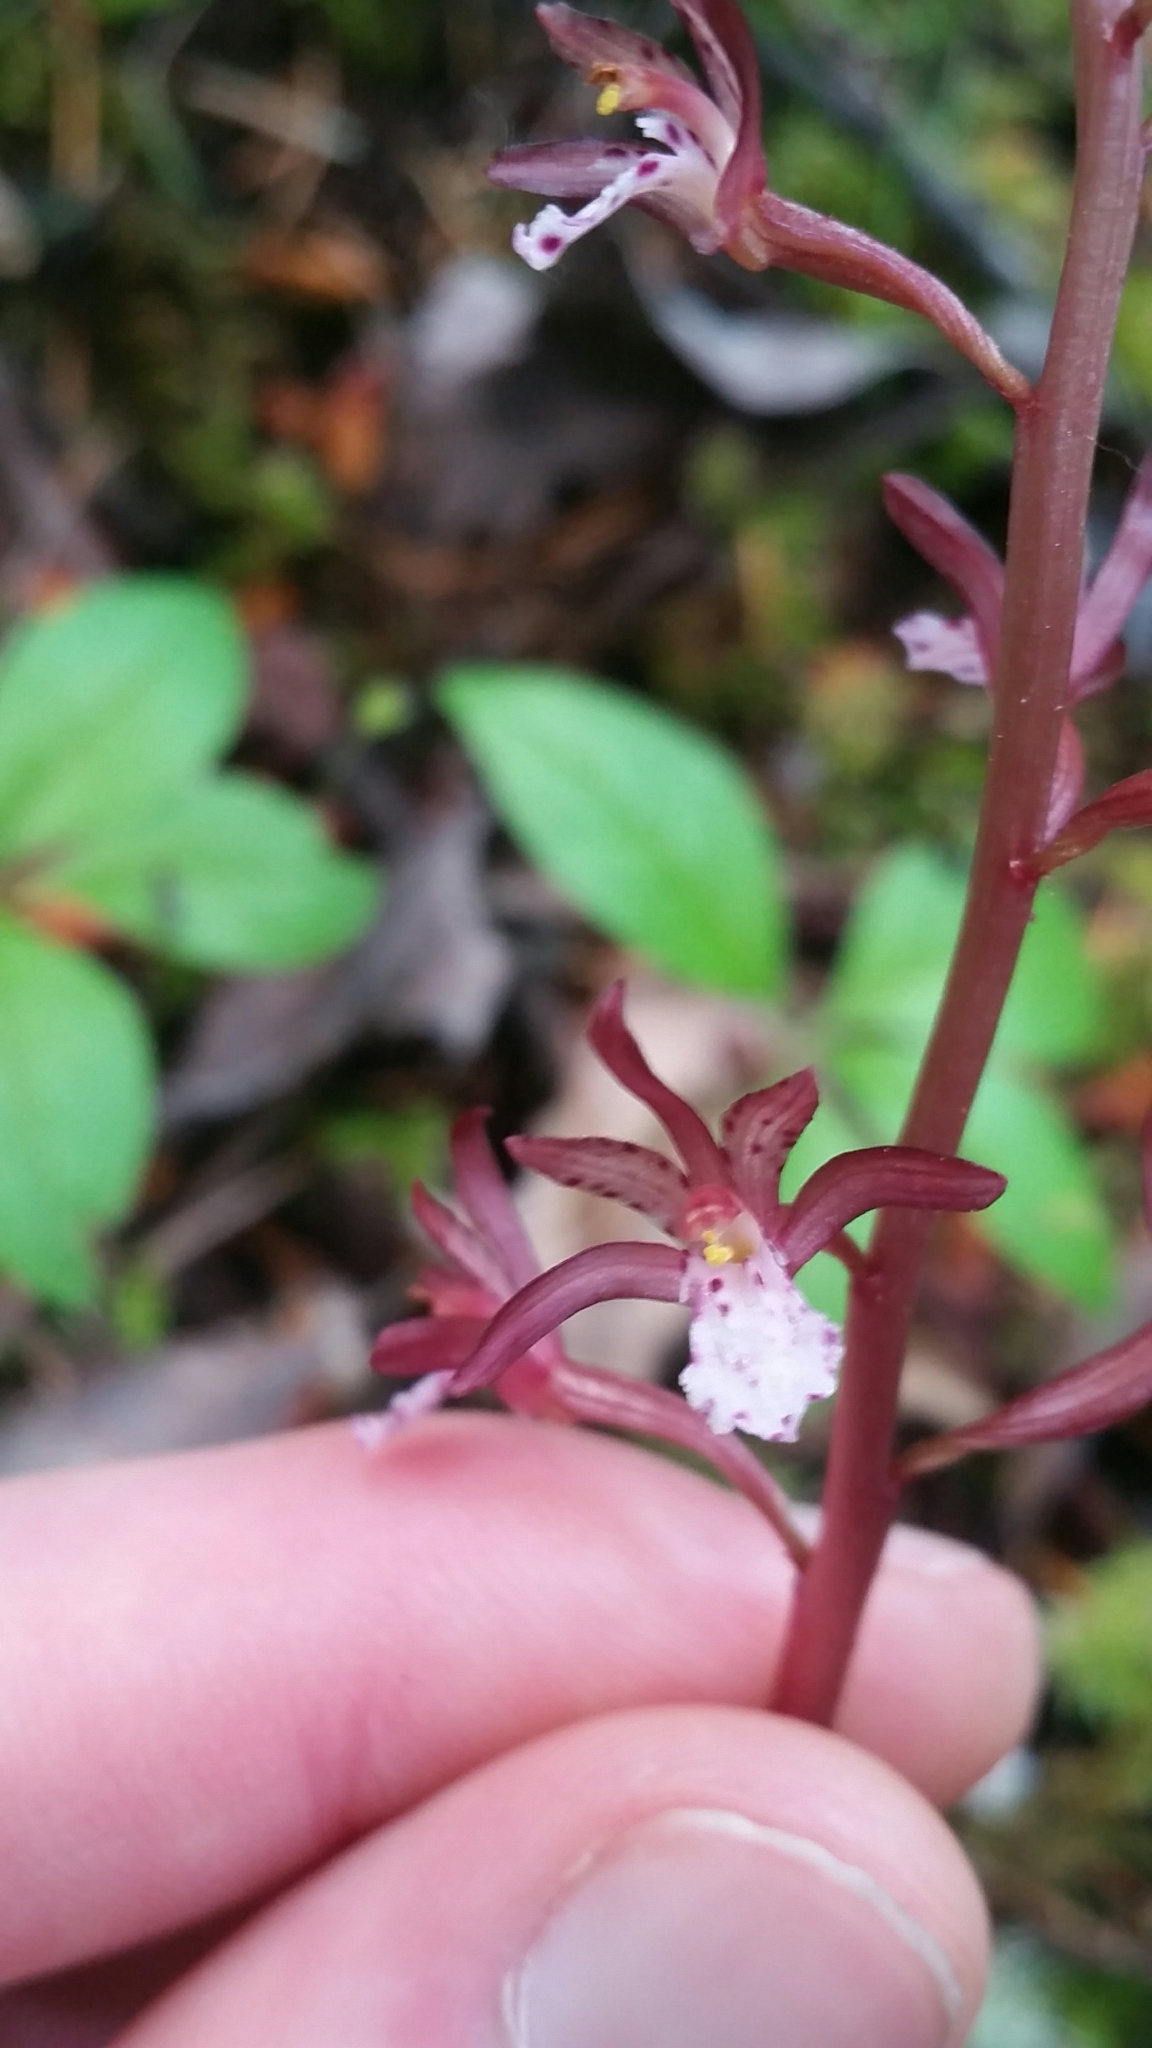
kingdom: Plantae
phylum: Tracheophyta
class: Liliopsida
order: Asparagales
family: Orchidaceae
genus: Corallorhiza
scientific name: Corallorhiza maculata
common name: Spotted coralroot
